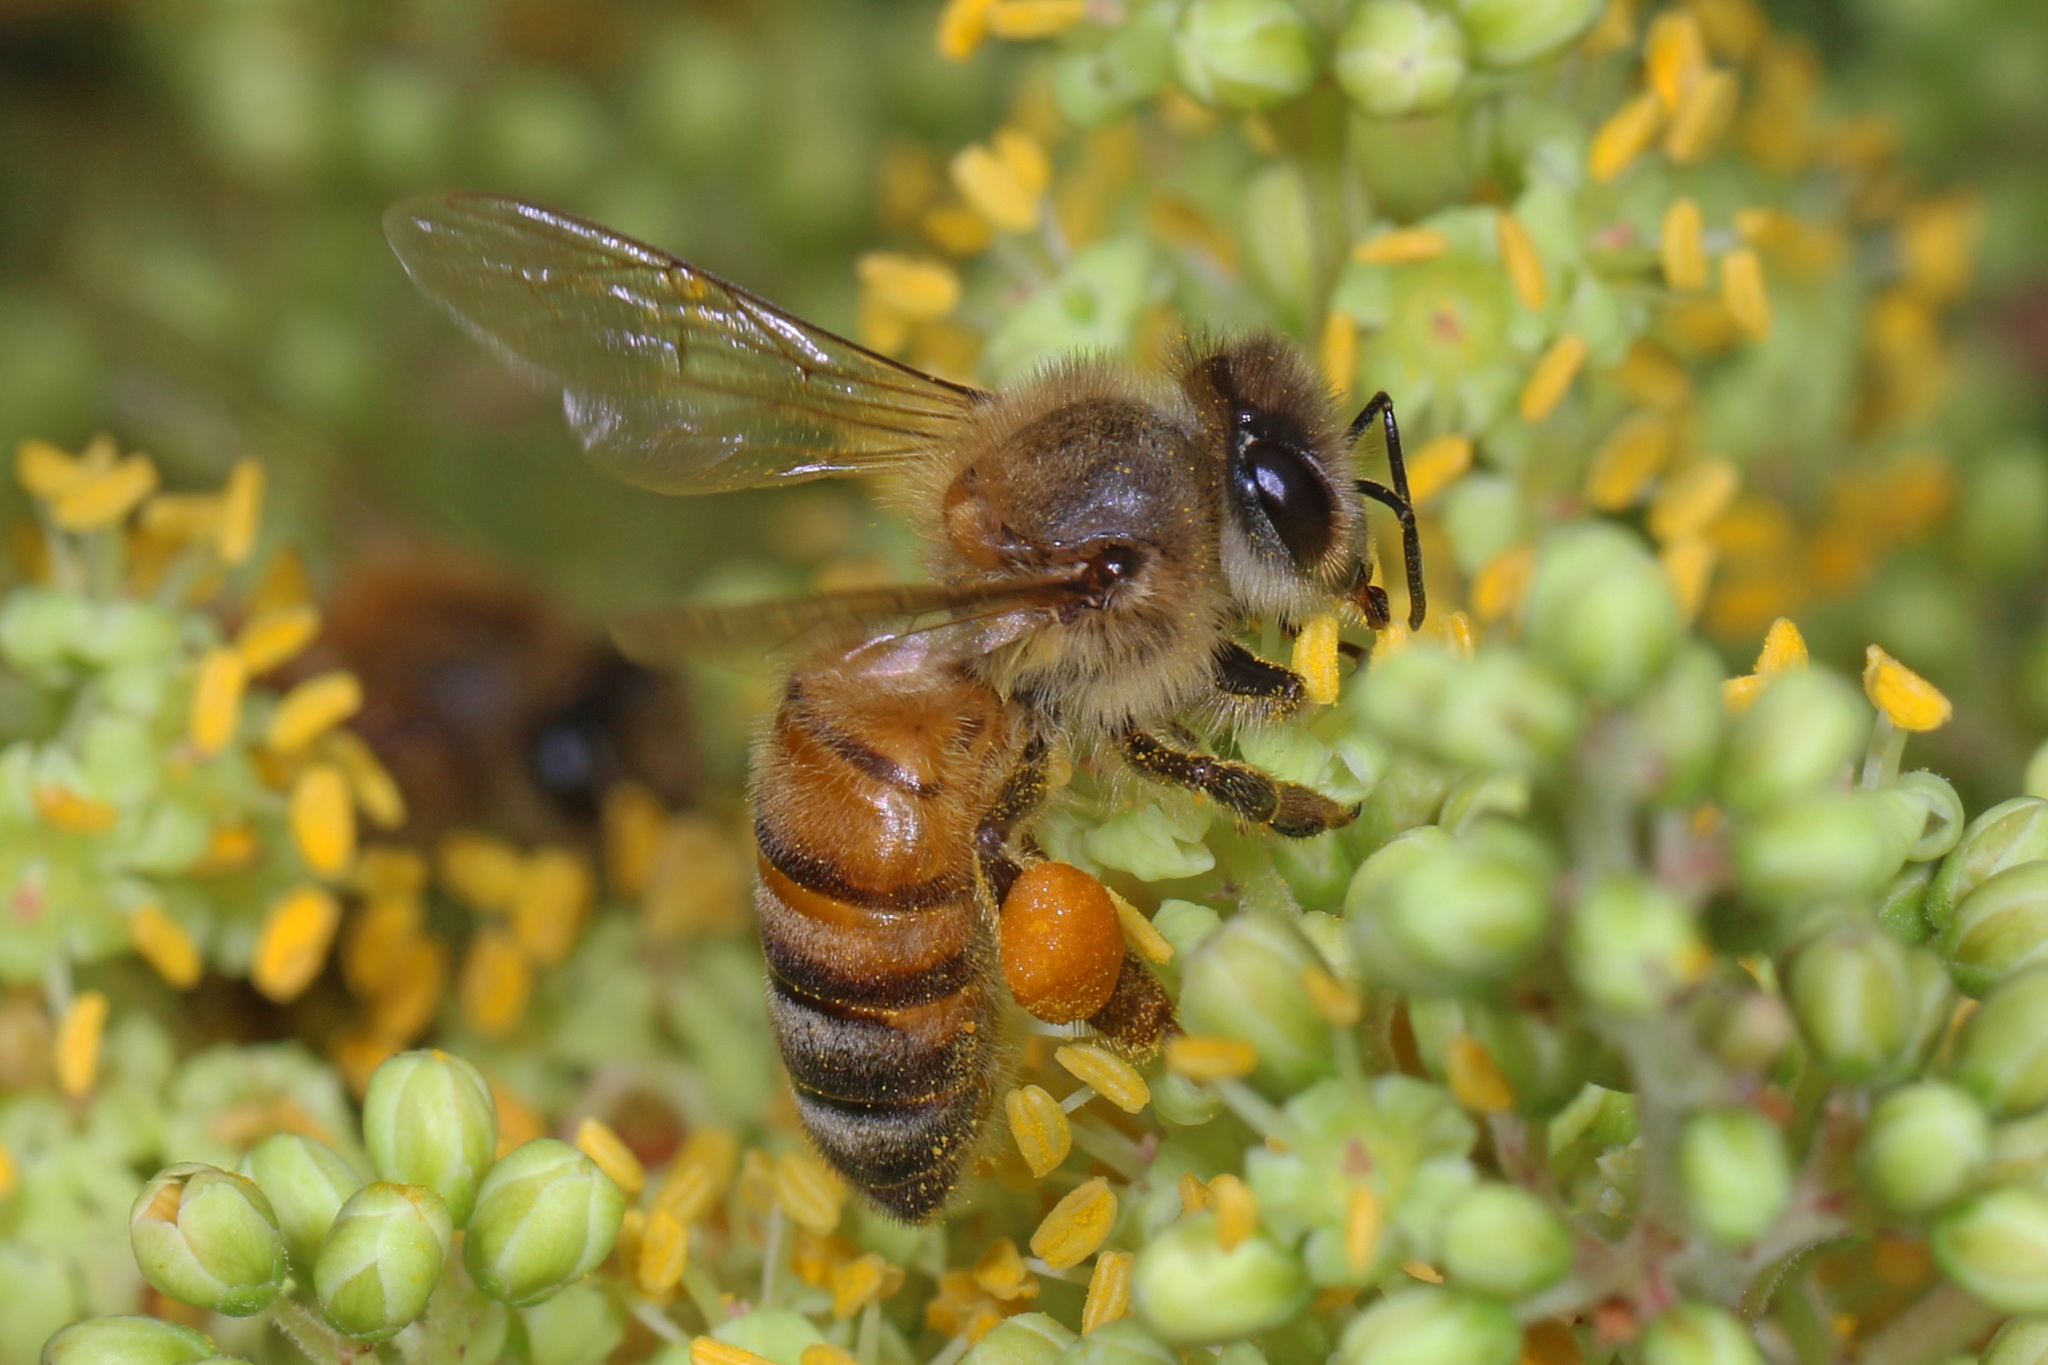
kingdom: Animalia
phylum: Arthropoda
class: Insecta
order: Hymenoptera
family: Apidae
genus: Apis
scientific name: Apis mellifera
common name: Honey bee
